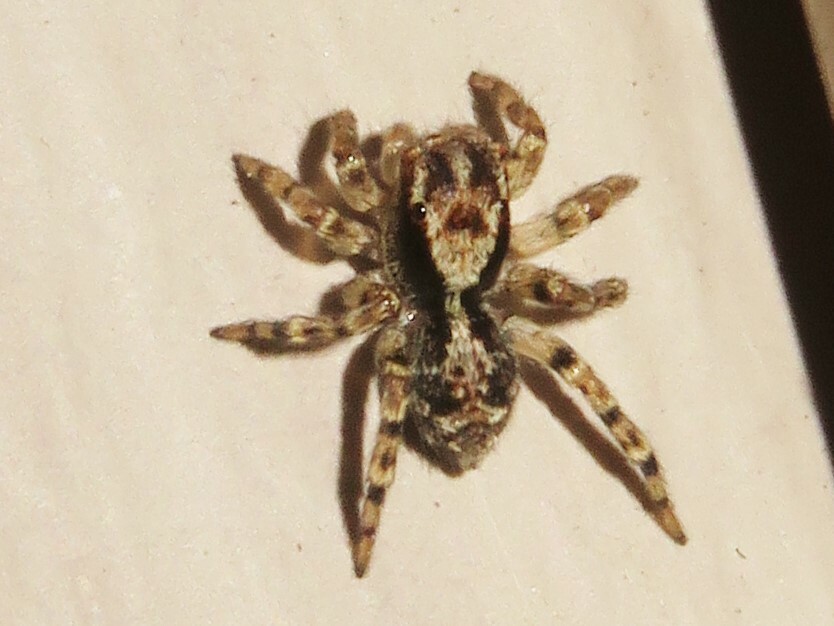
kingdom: Animalia
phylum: Arthropoda
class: Arachnida
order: Araneae
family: Salticidae
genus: Naphrys
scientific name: Naphrys pulex
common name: Flea jumping spider
